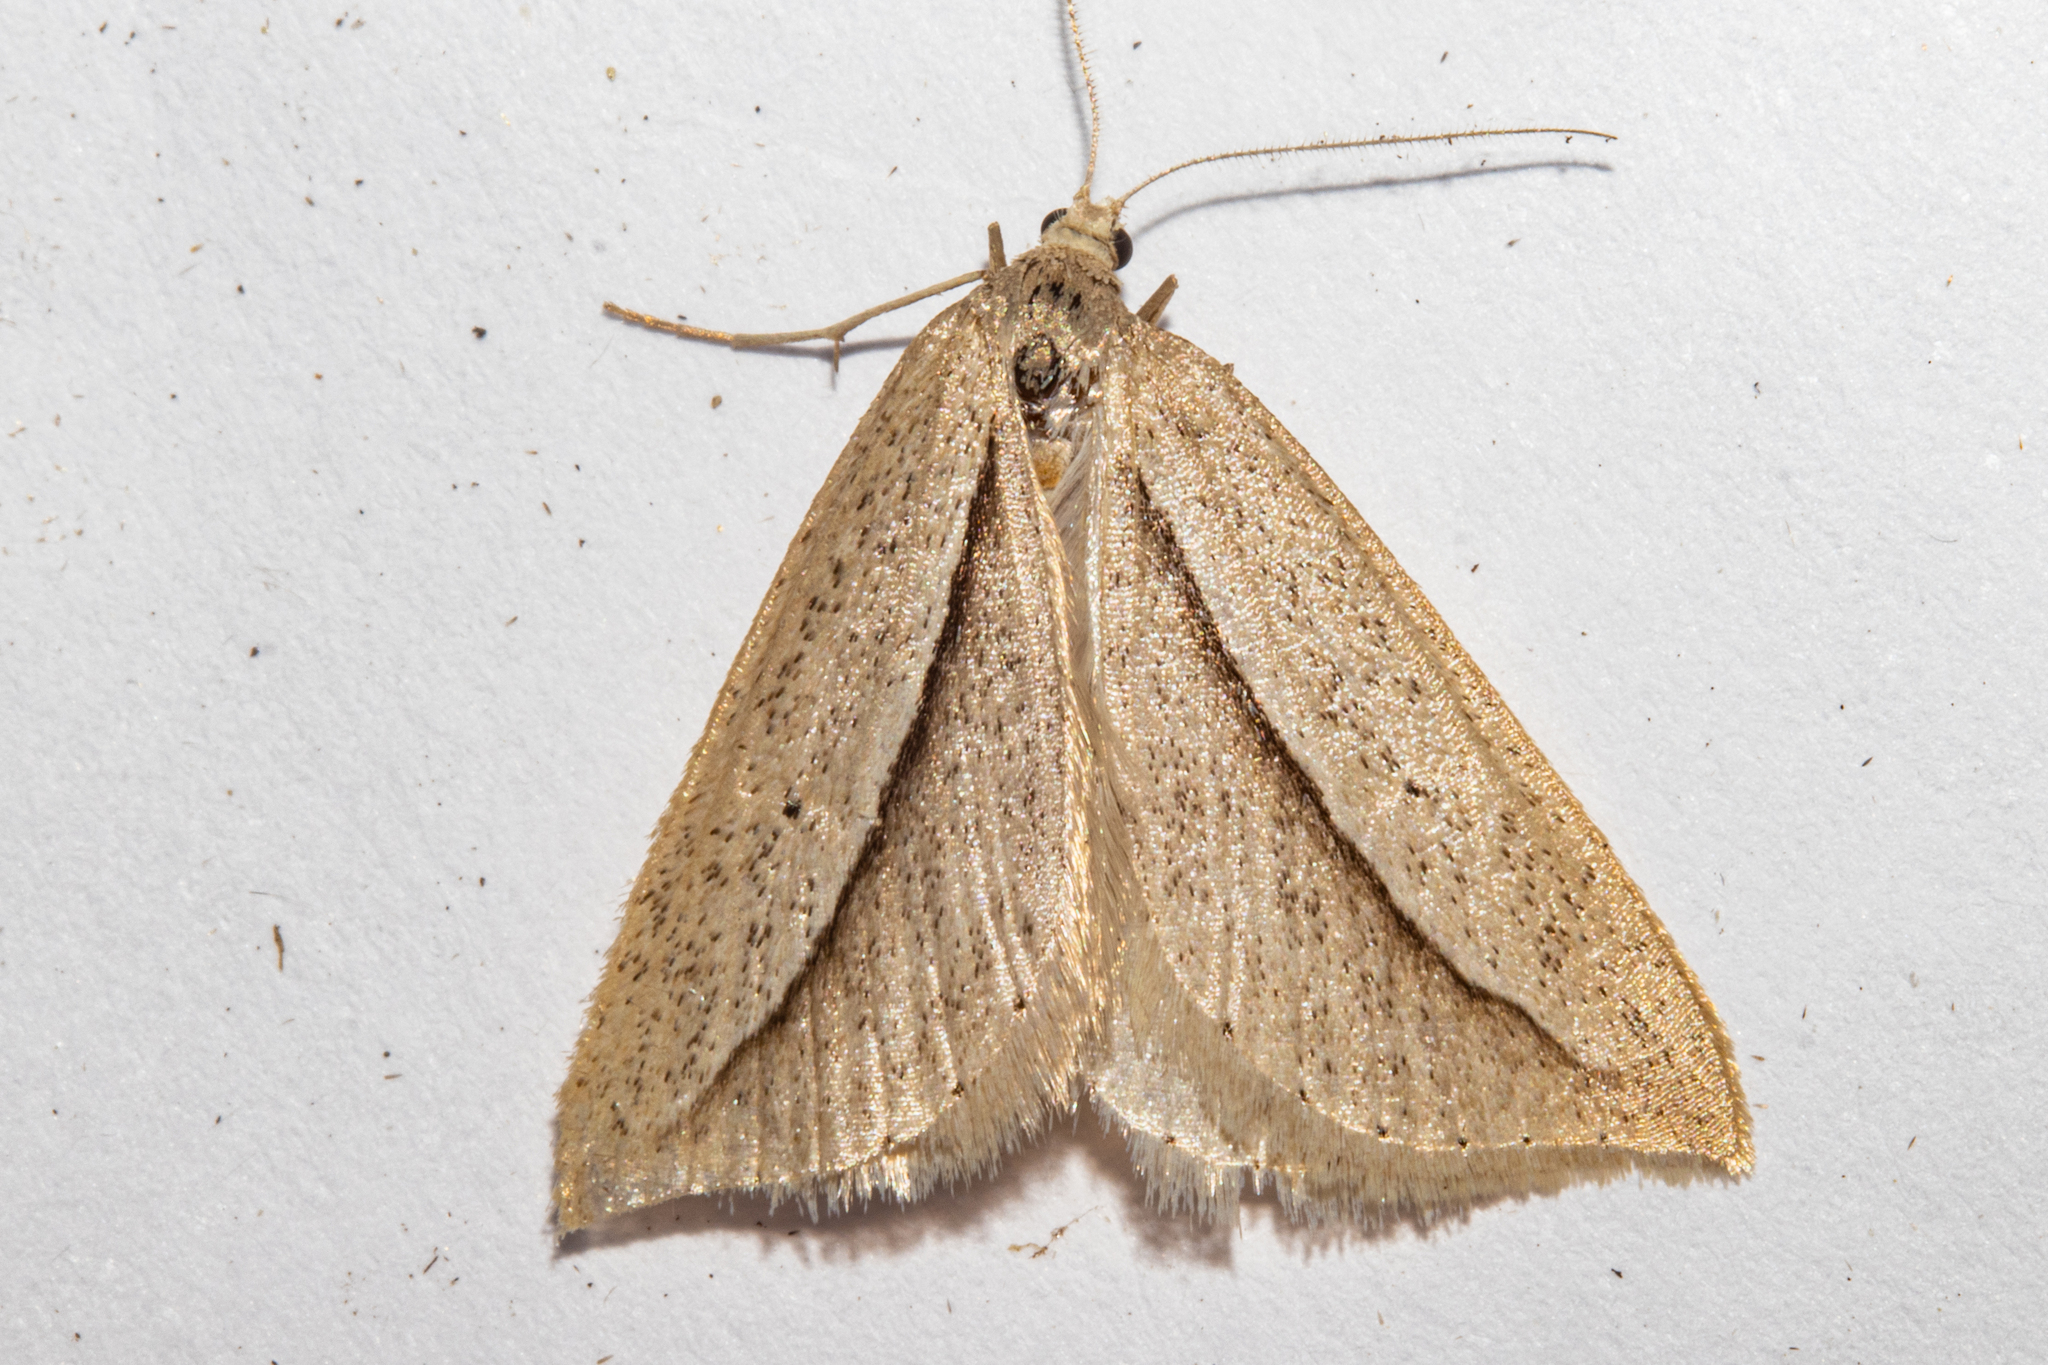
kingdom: Animalia
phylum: Arthropoda
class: Insecta
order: Lepidoptera
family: Geometridae
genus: Theoxena
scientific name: Theoxena scissaria
